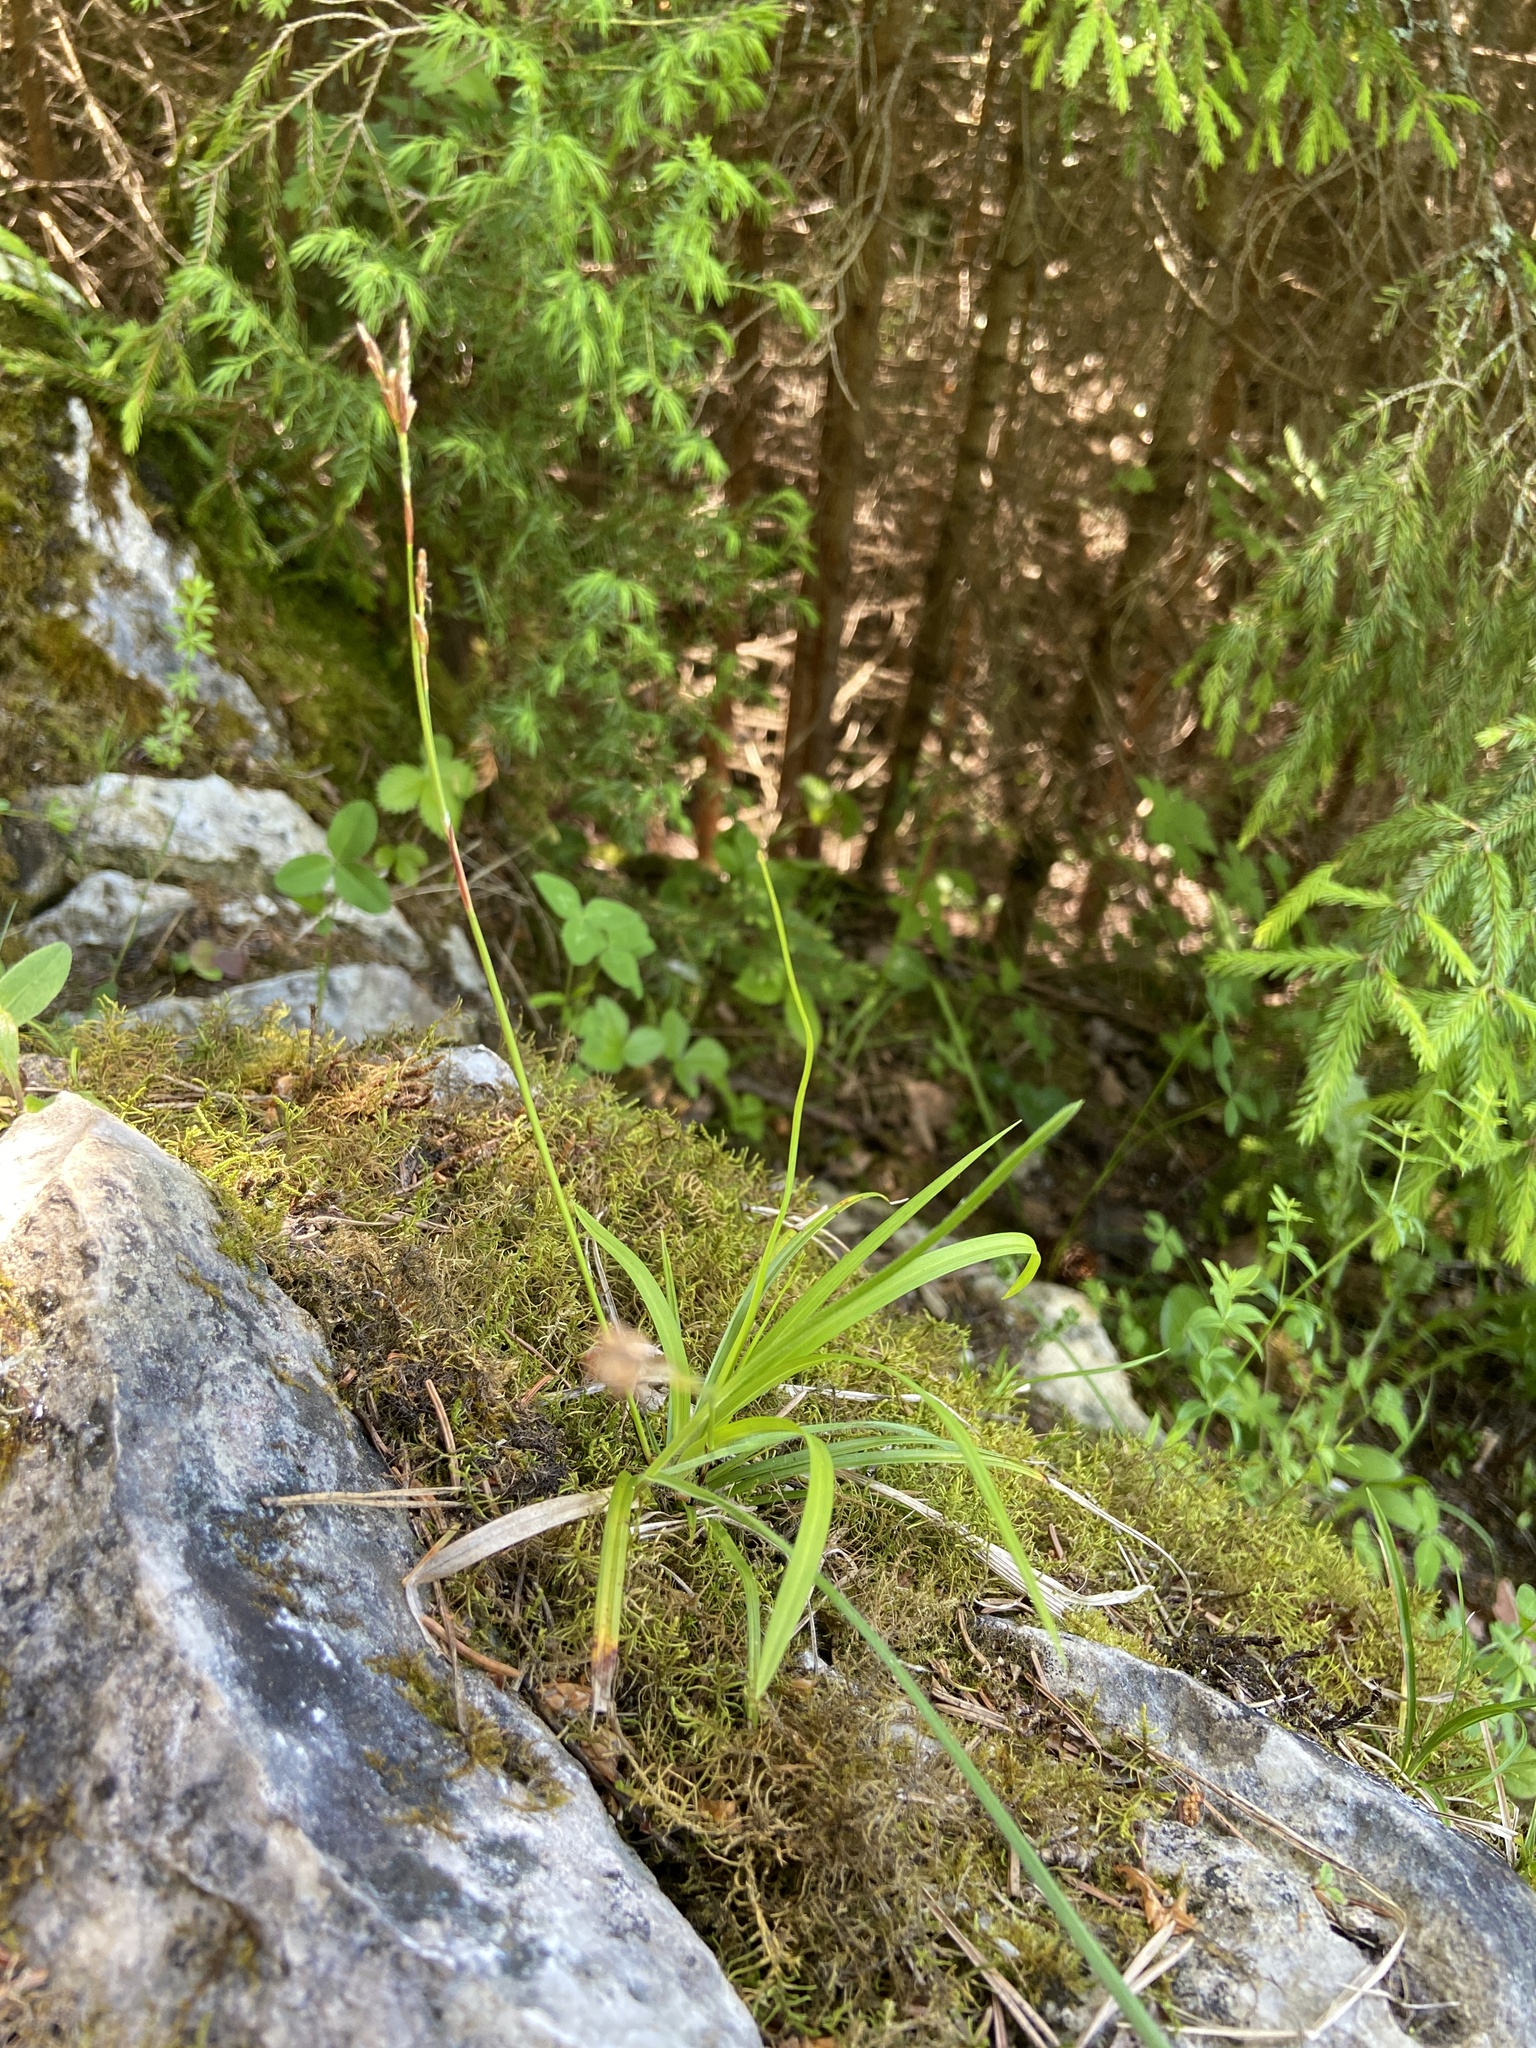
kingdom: Plantae
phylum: Tracheophyta
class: Liliopsida
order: Poales
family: Cyperaceae
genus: Carex
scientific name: Carex digitata
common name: Fingered sedge
